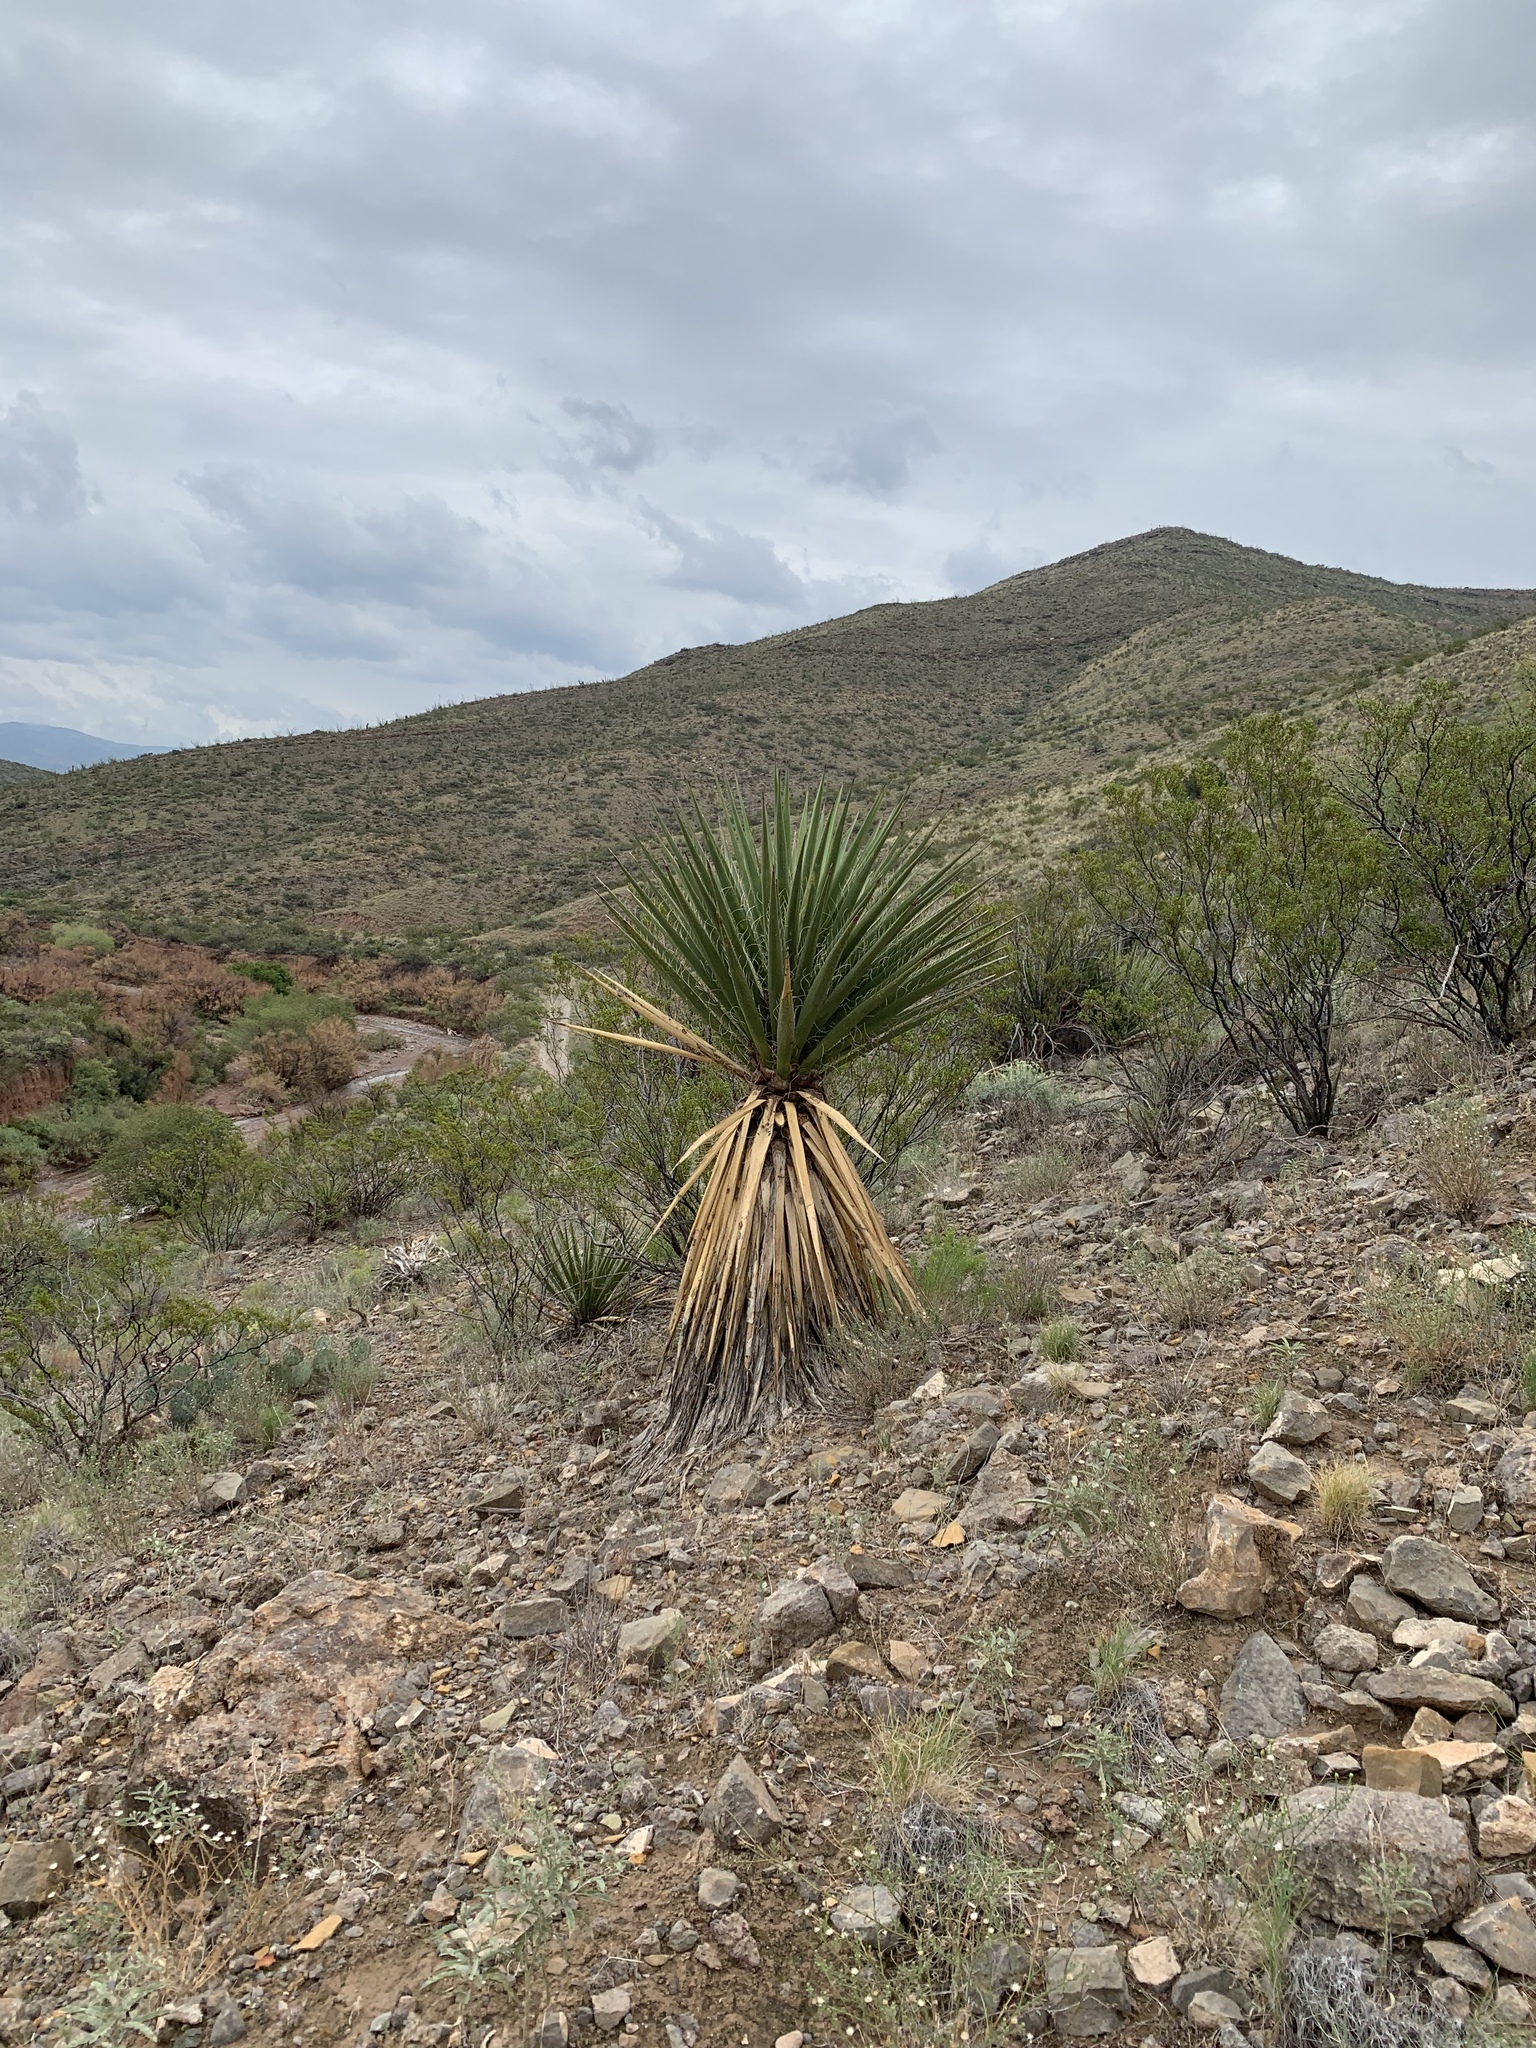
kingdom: Plantae
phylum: Tracheophyta
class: Liliopsida
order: Asparagales
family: Asparagaceae
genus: Yucca
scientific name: Yucca treculiana
